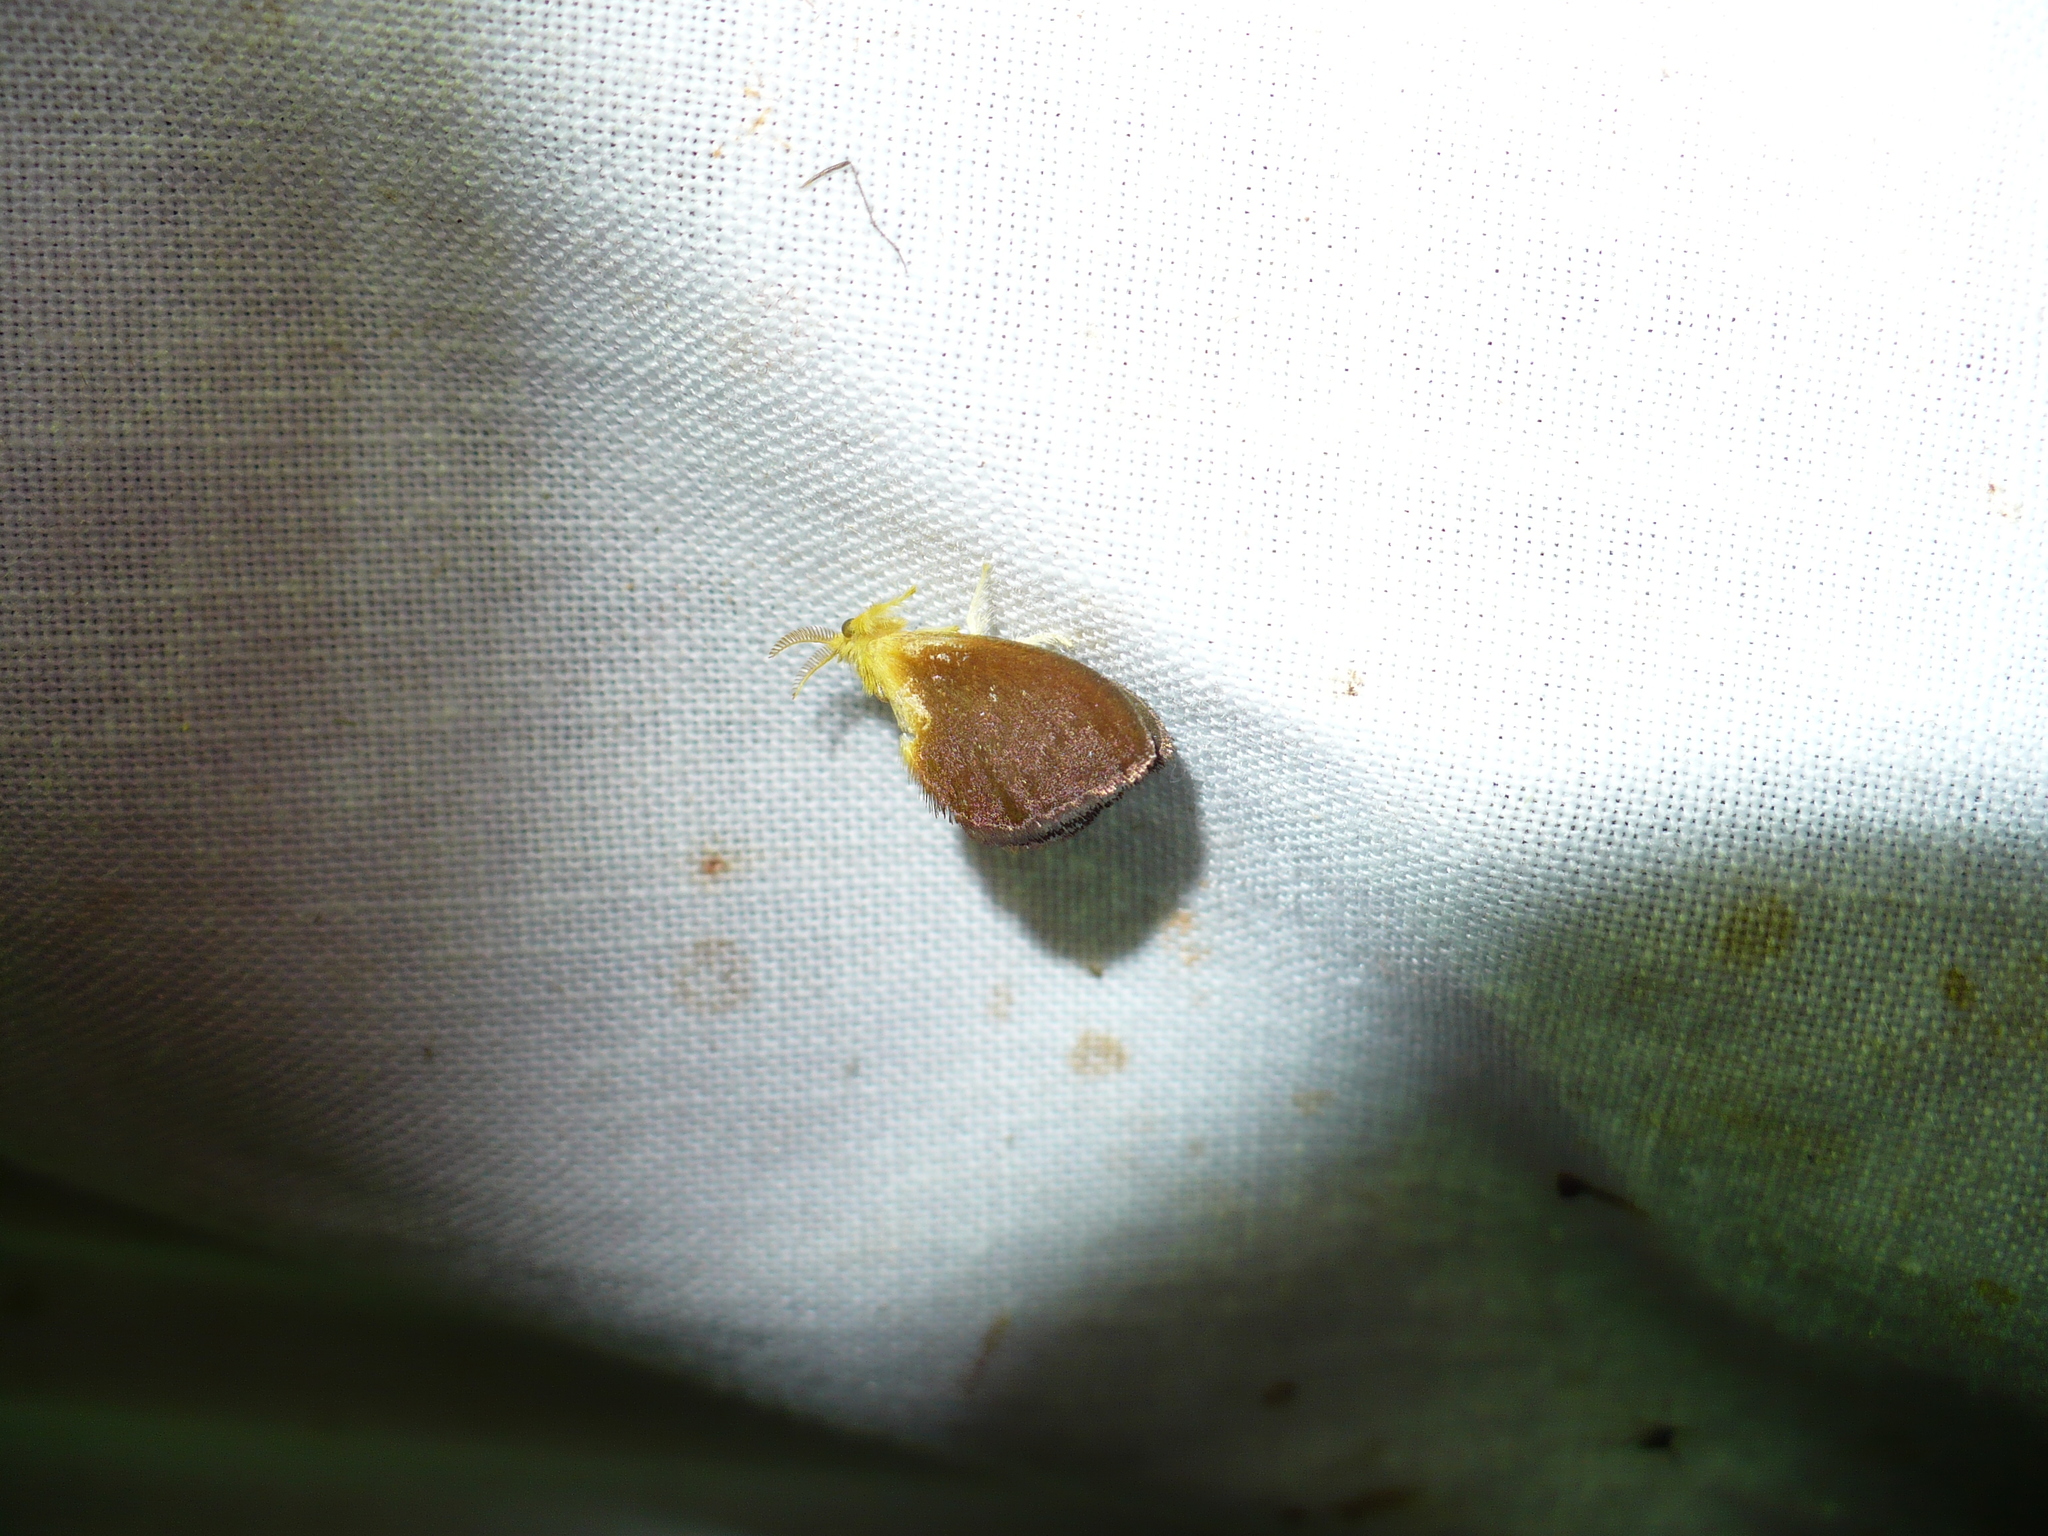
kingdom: Animalia
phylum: Arthropoda
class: Insecta
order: Lepidoptera
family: Dalceridae
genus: Dalcerides
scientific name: Dalcerides mesoa
